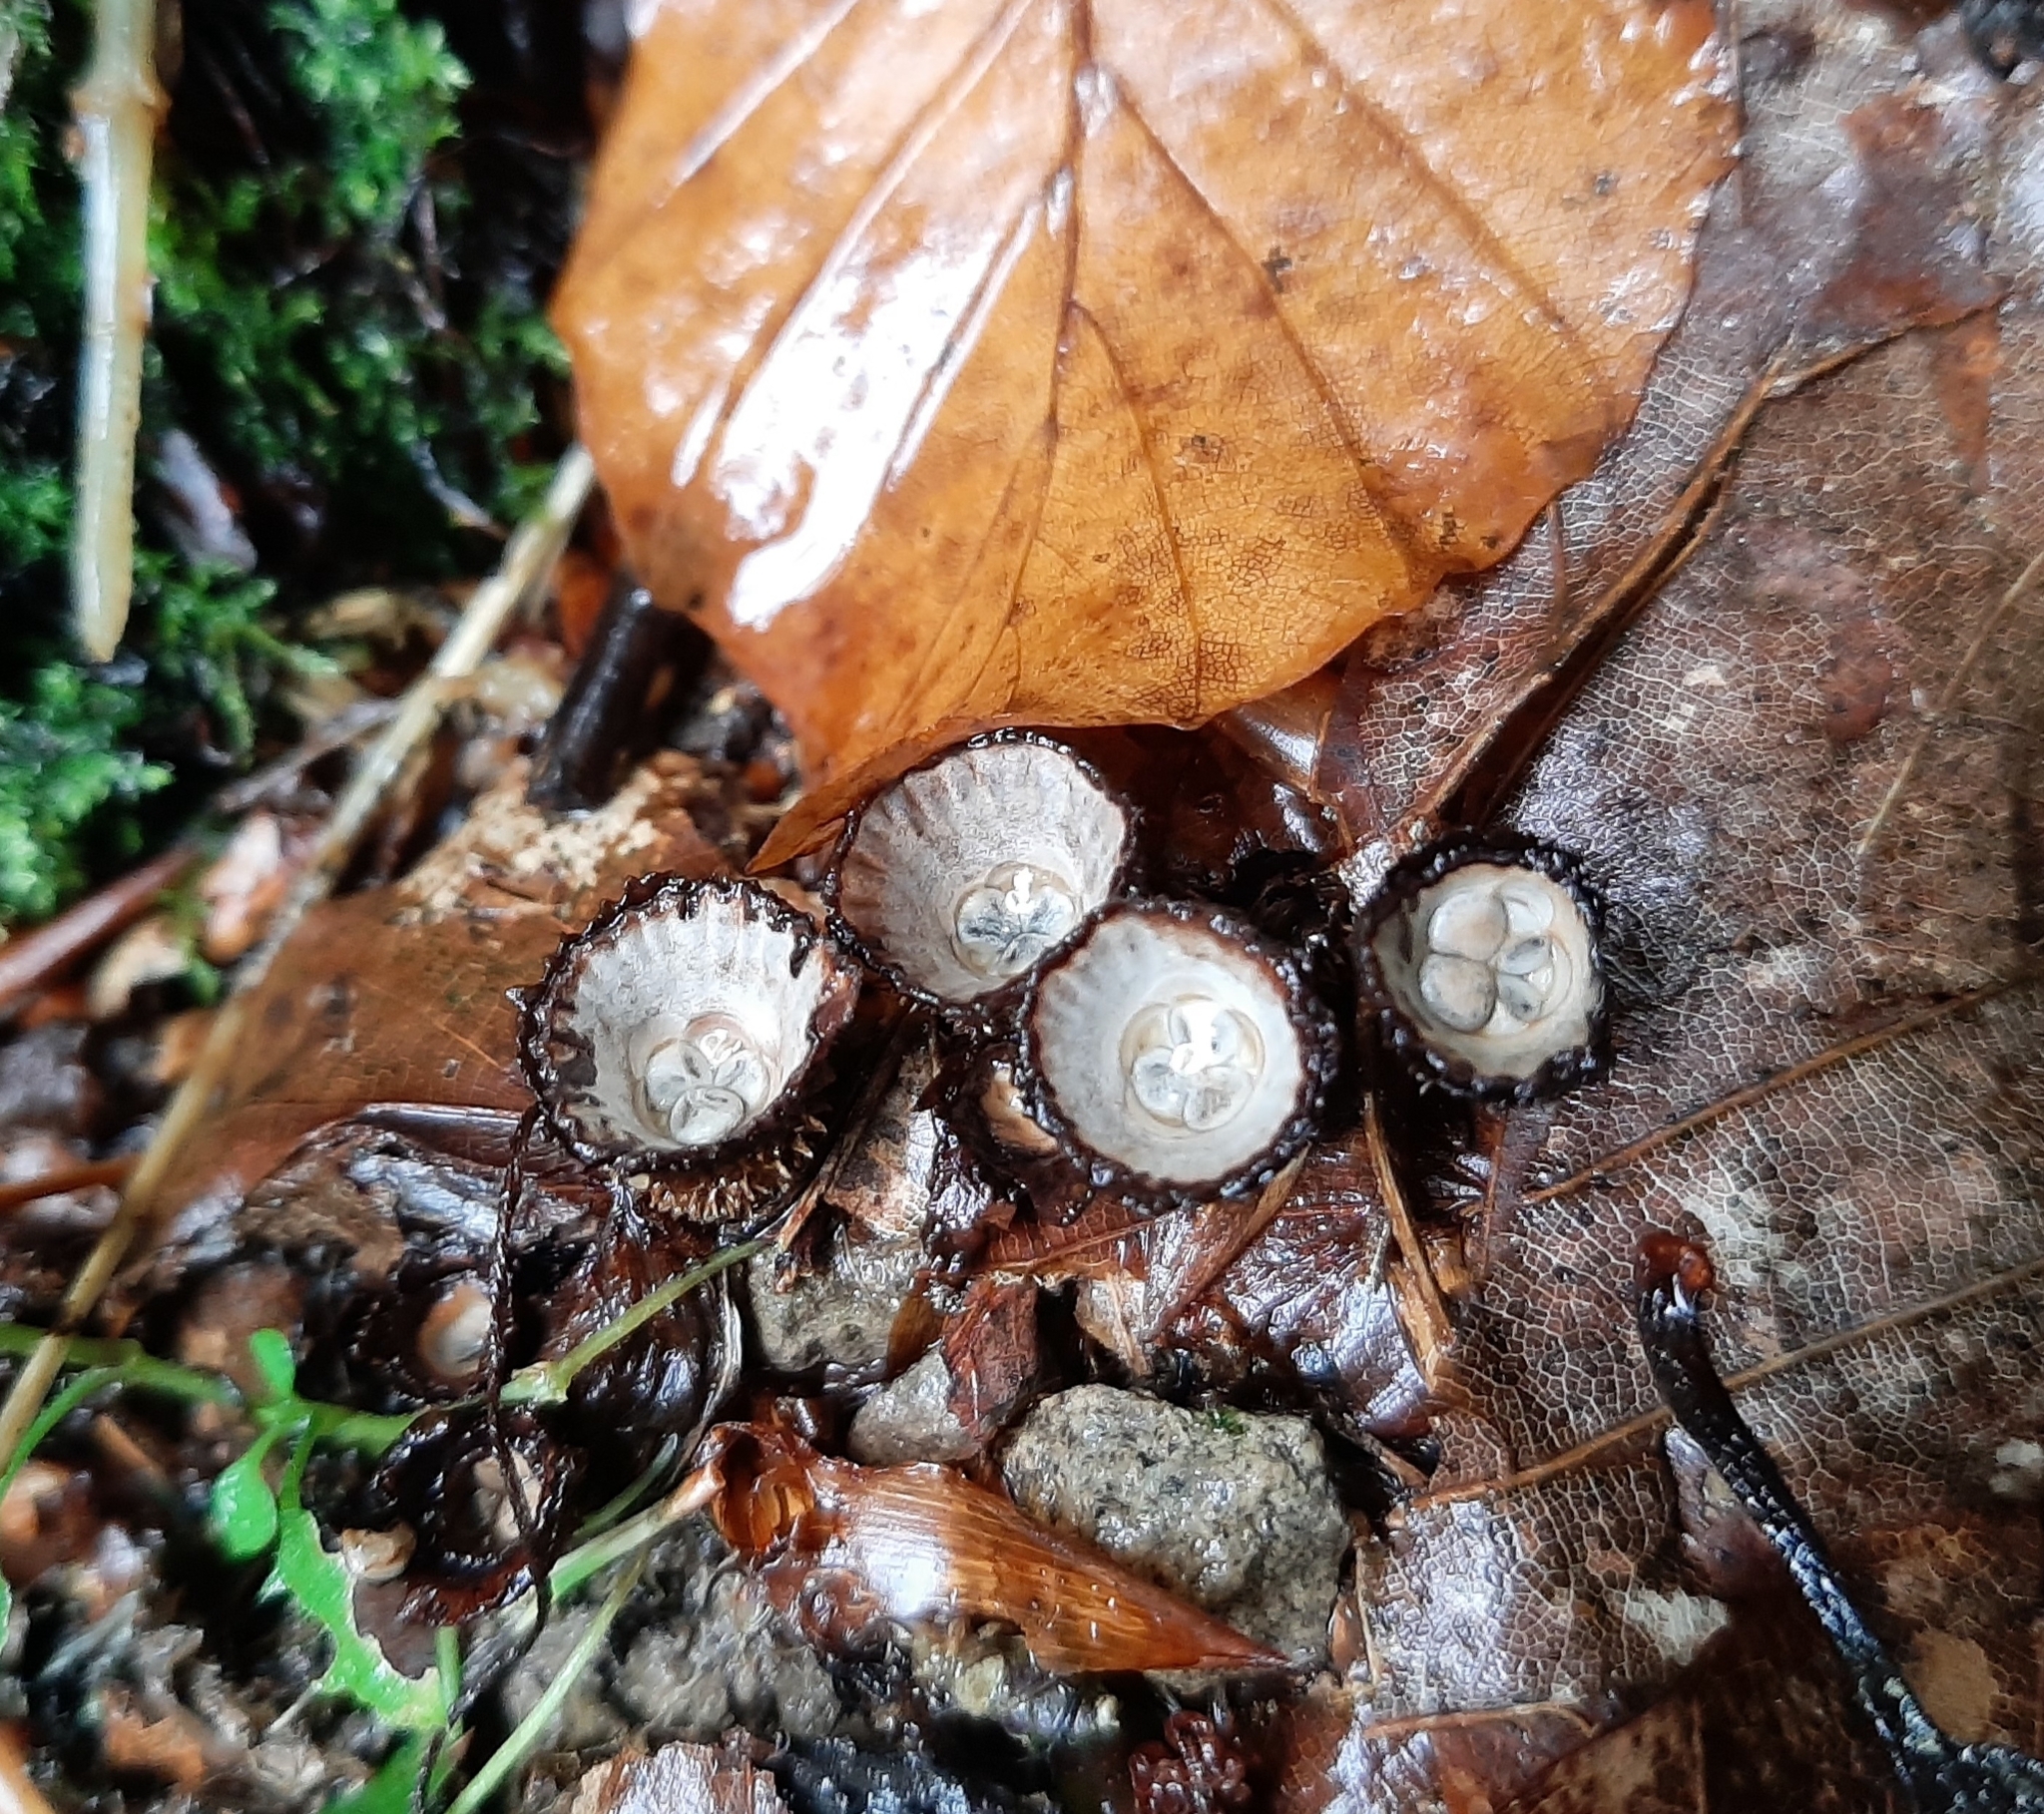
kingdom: Fungi
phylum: Basidiomycota
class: Agaricomycetes
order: Agaricales
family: Agaricaceae
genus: Cyathus
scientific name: Cyathus striatus
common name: Fluted bird's nest
